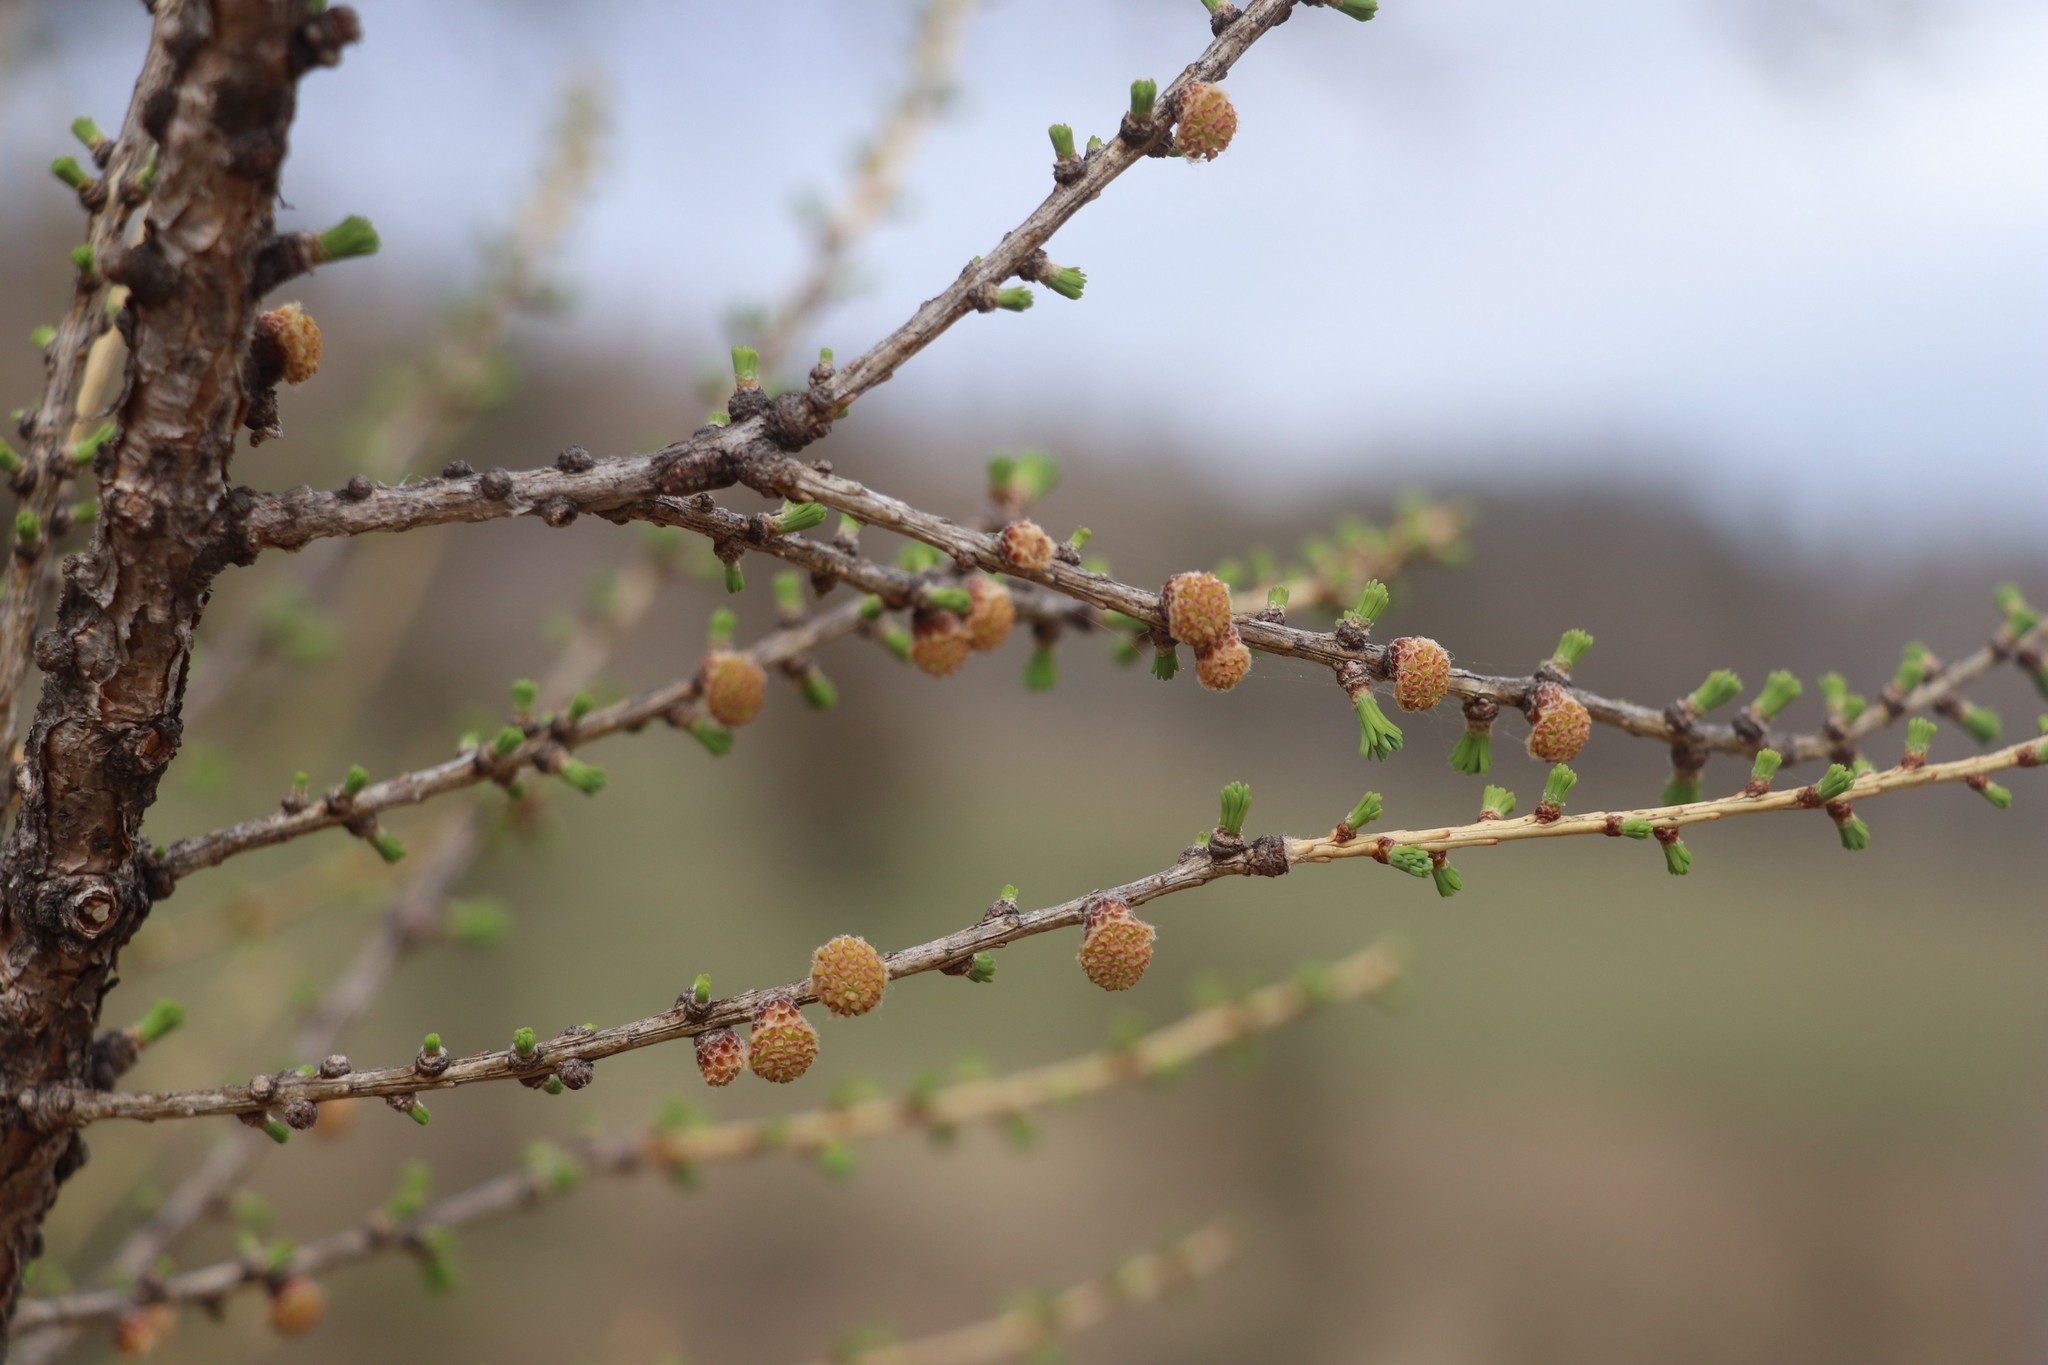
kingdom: Plantae
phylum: Tracheophyta
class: Pinopsida
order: Pinales
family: Pinaceae
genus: Larix
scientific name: Larix sibirica
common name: Siberian larch
